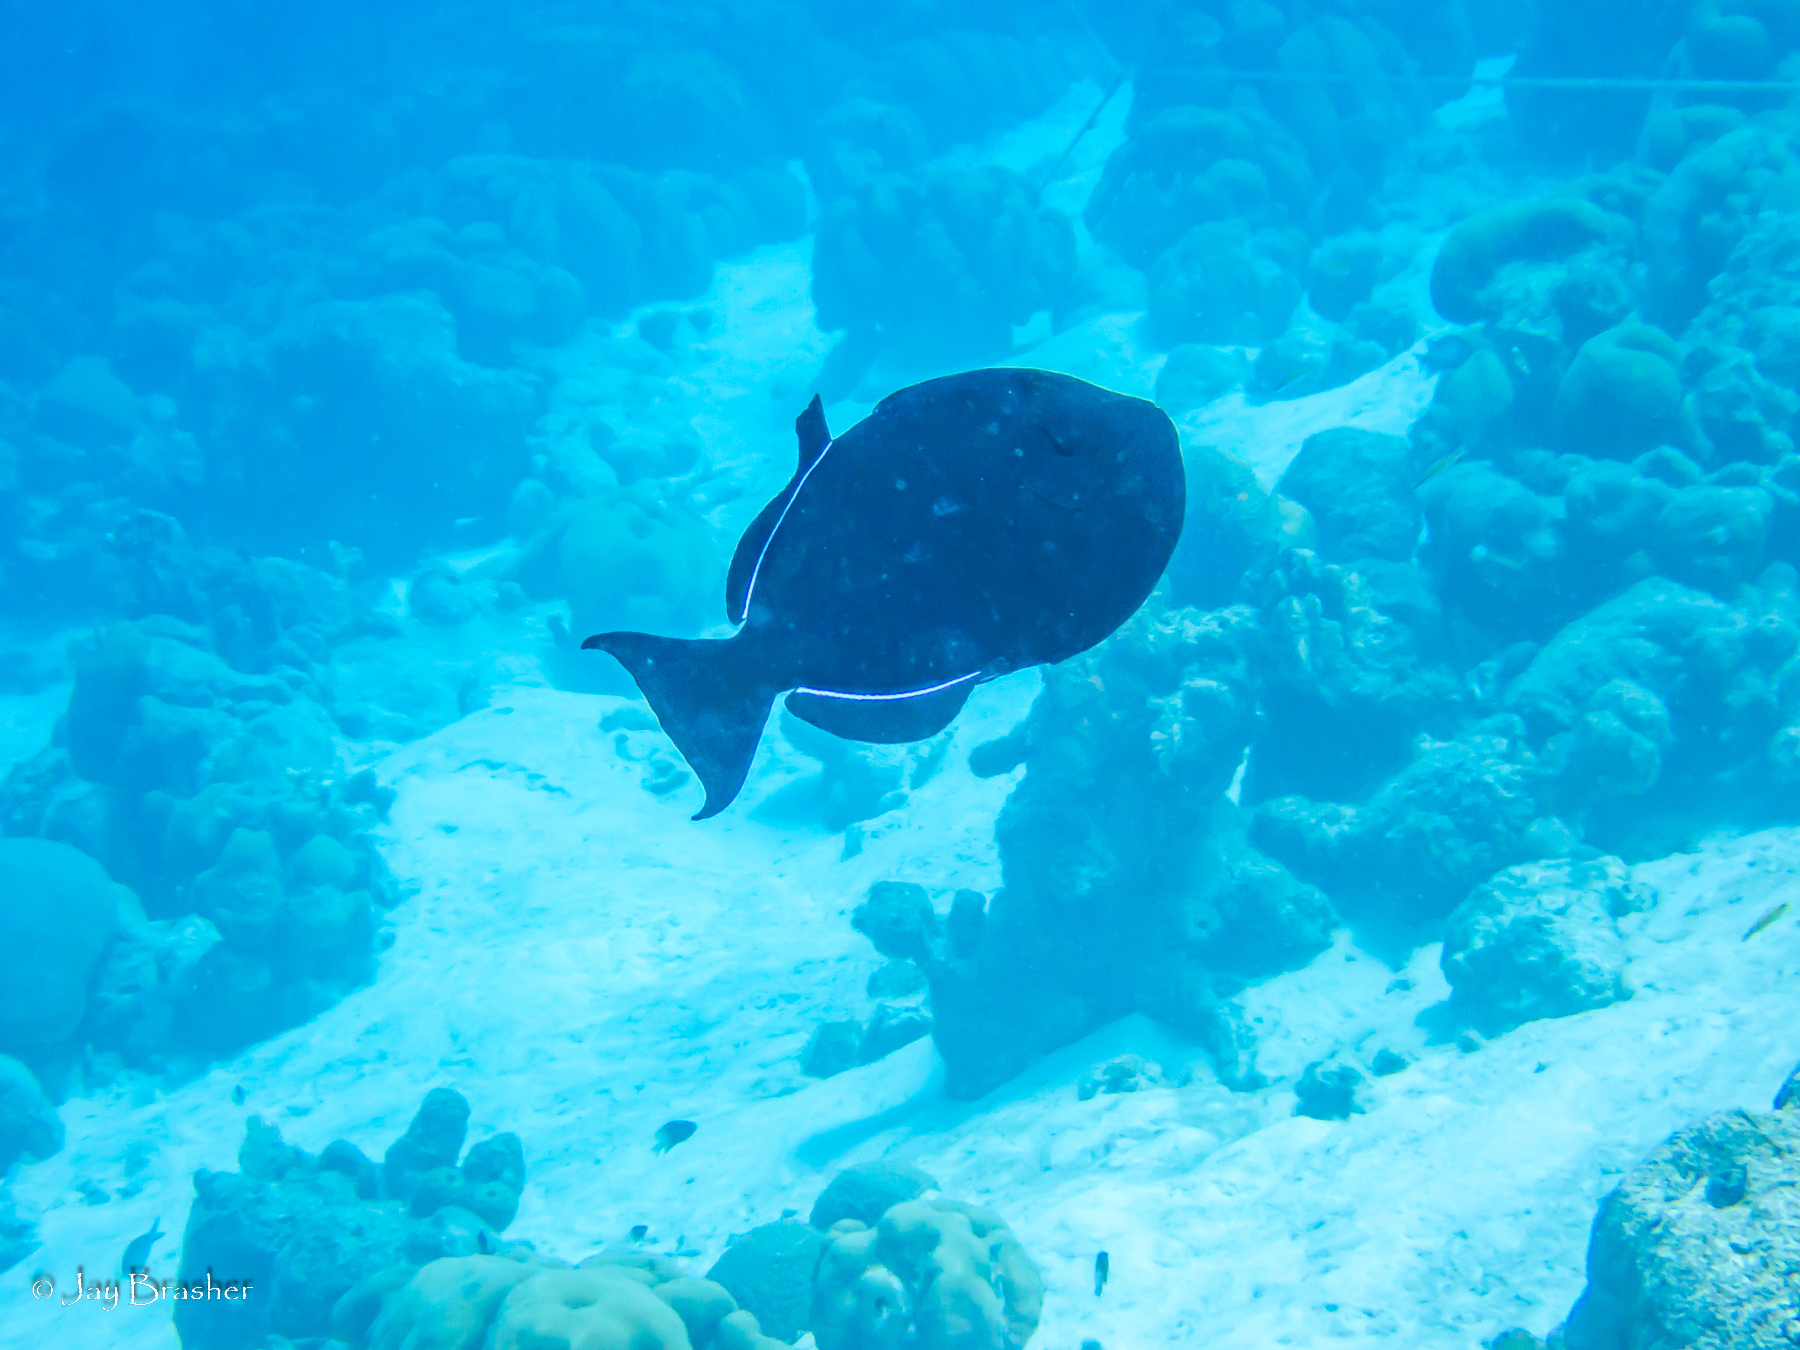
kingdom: Animalia
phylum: Chordata
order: Tetraodontiformes
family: Balistidae
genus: Melichthys
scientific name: Melichthys niger
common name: Black durgon
